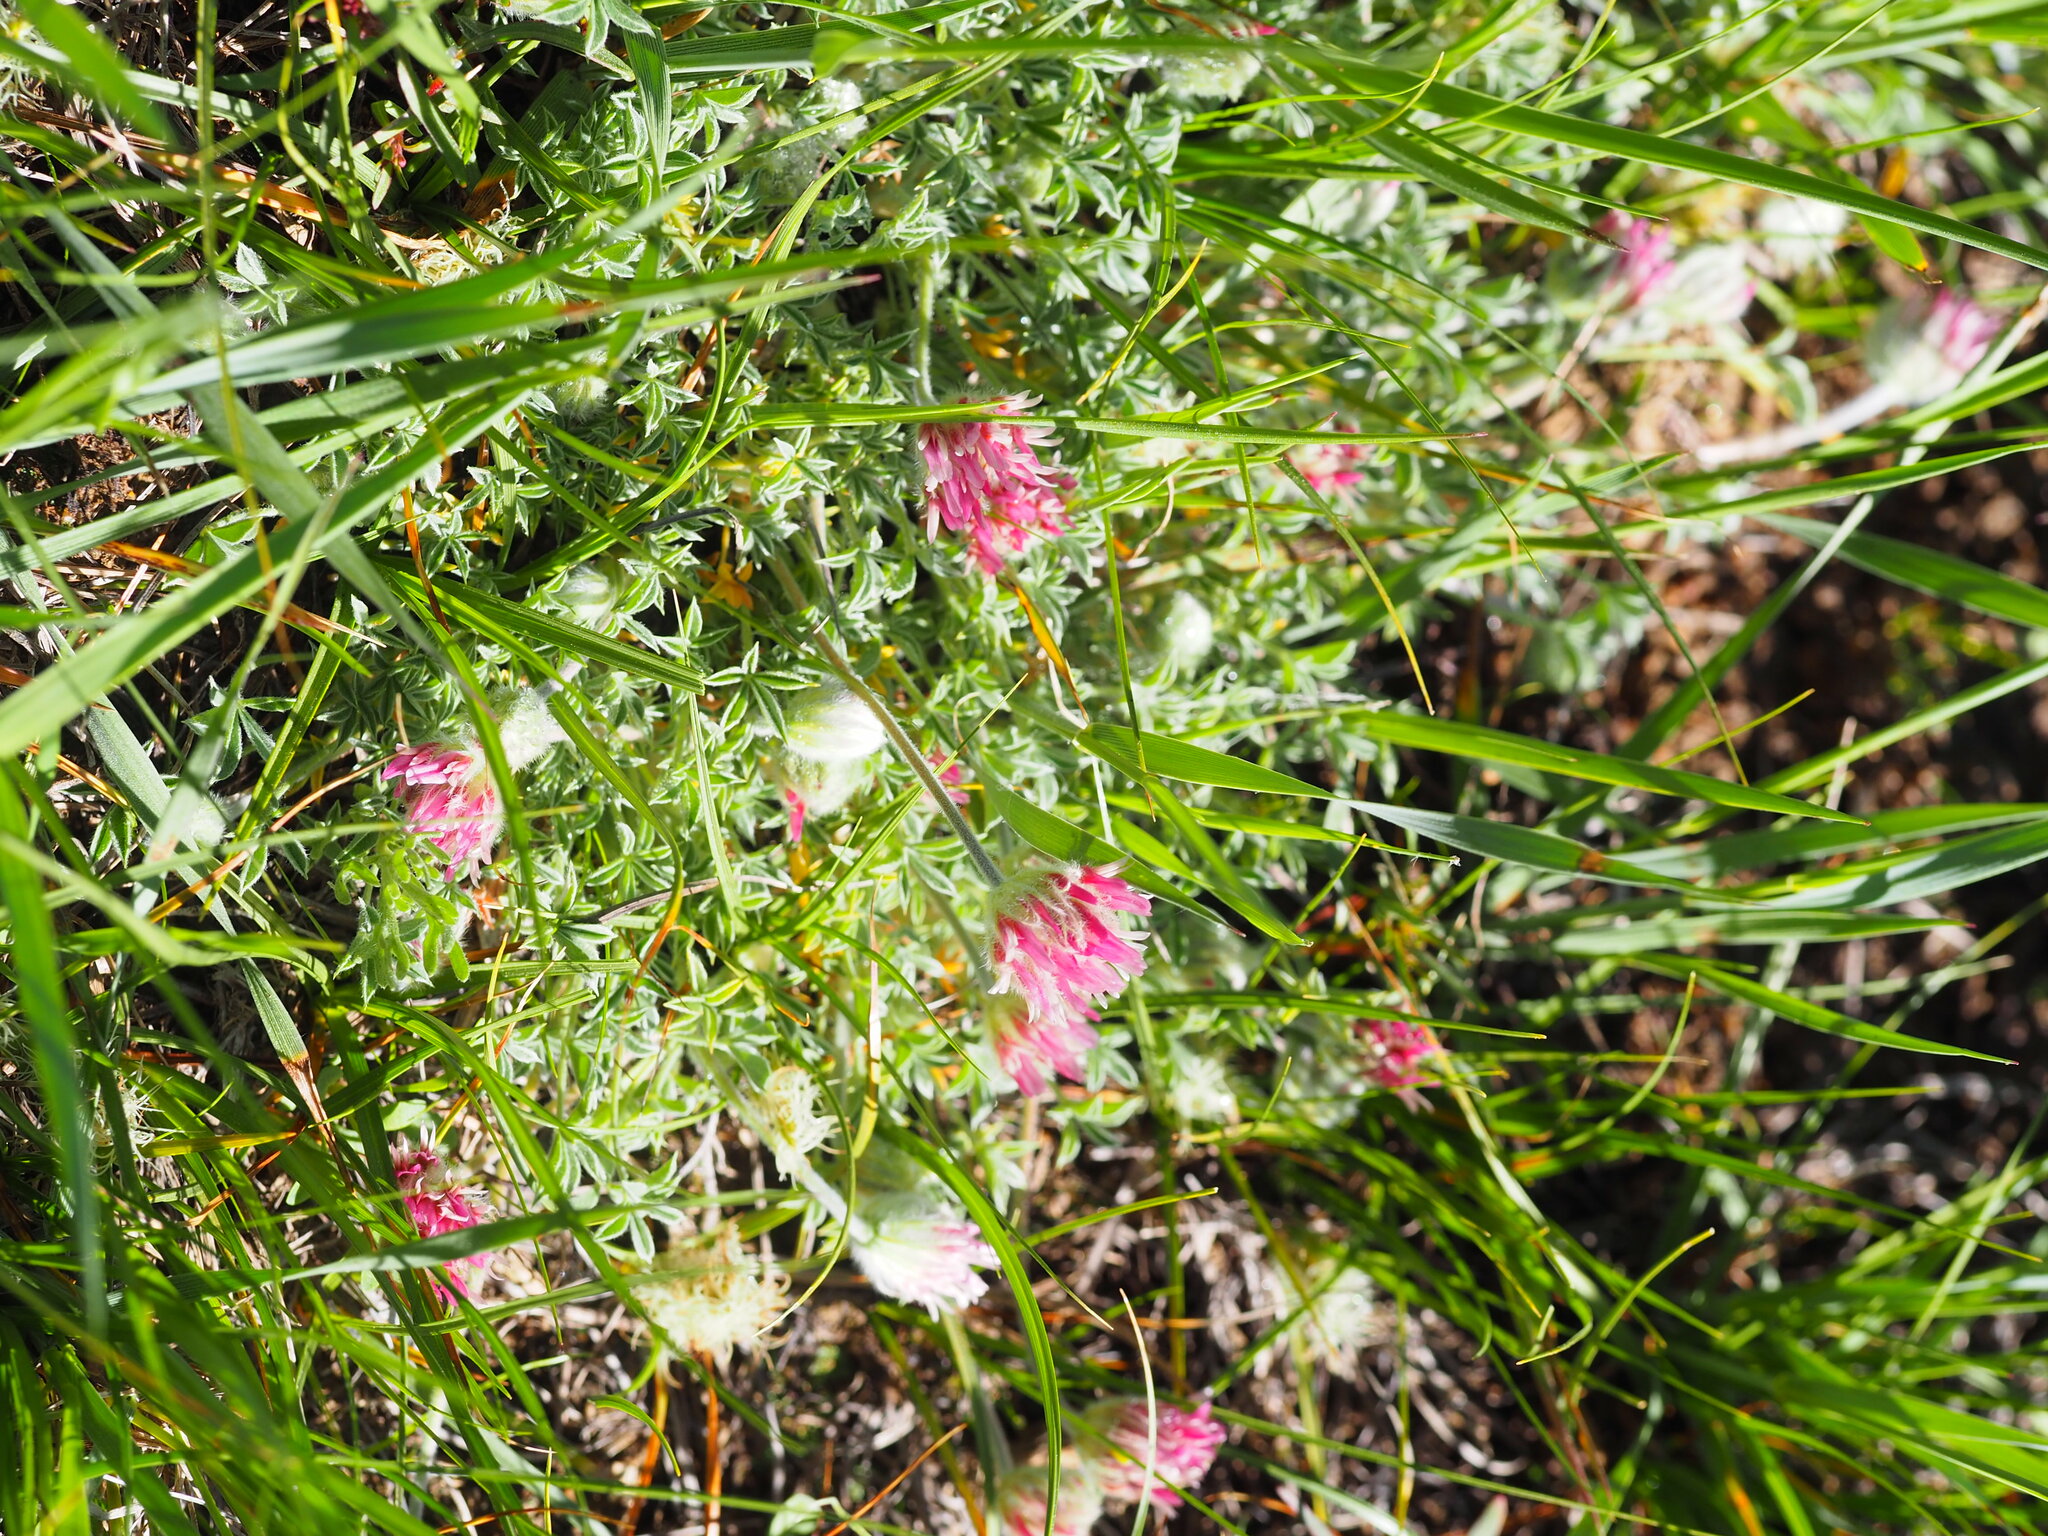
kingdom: Plantae
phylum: Tracheophyta
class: Magnoliopsida
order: Fabales
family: Fabaceae
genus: Trifolium
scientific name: Trifolium andersonii
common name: Anderson's clover
